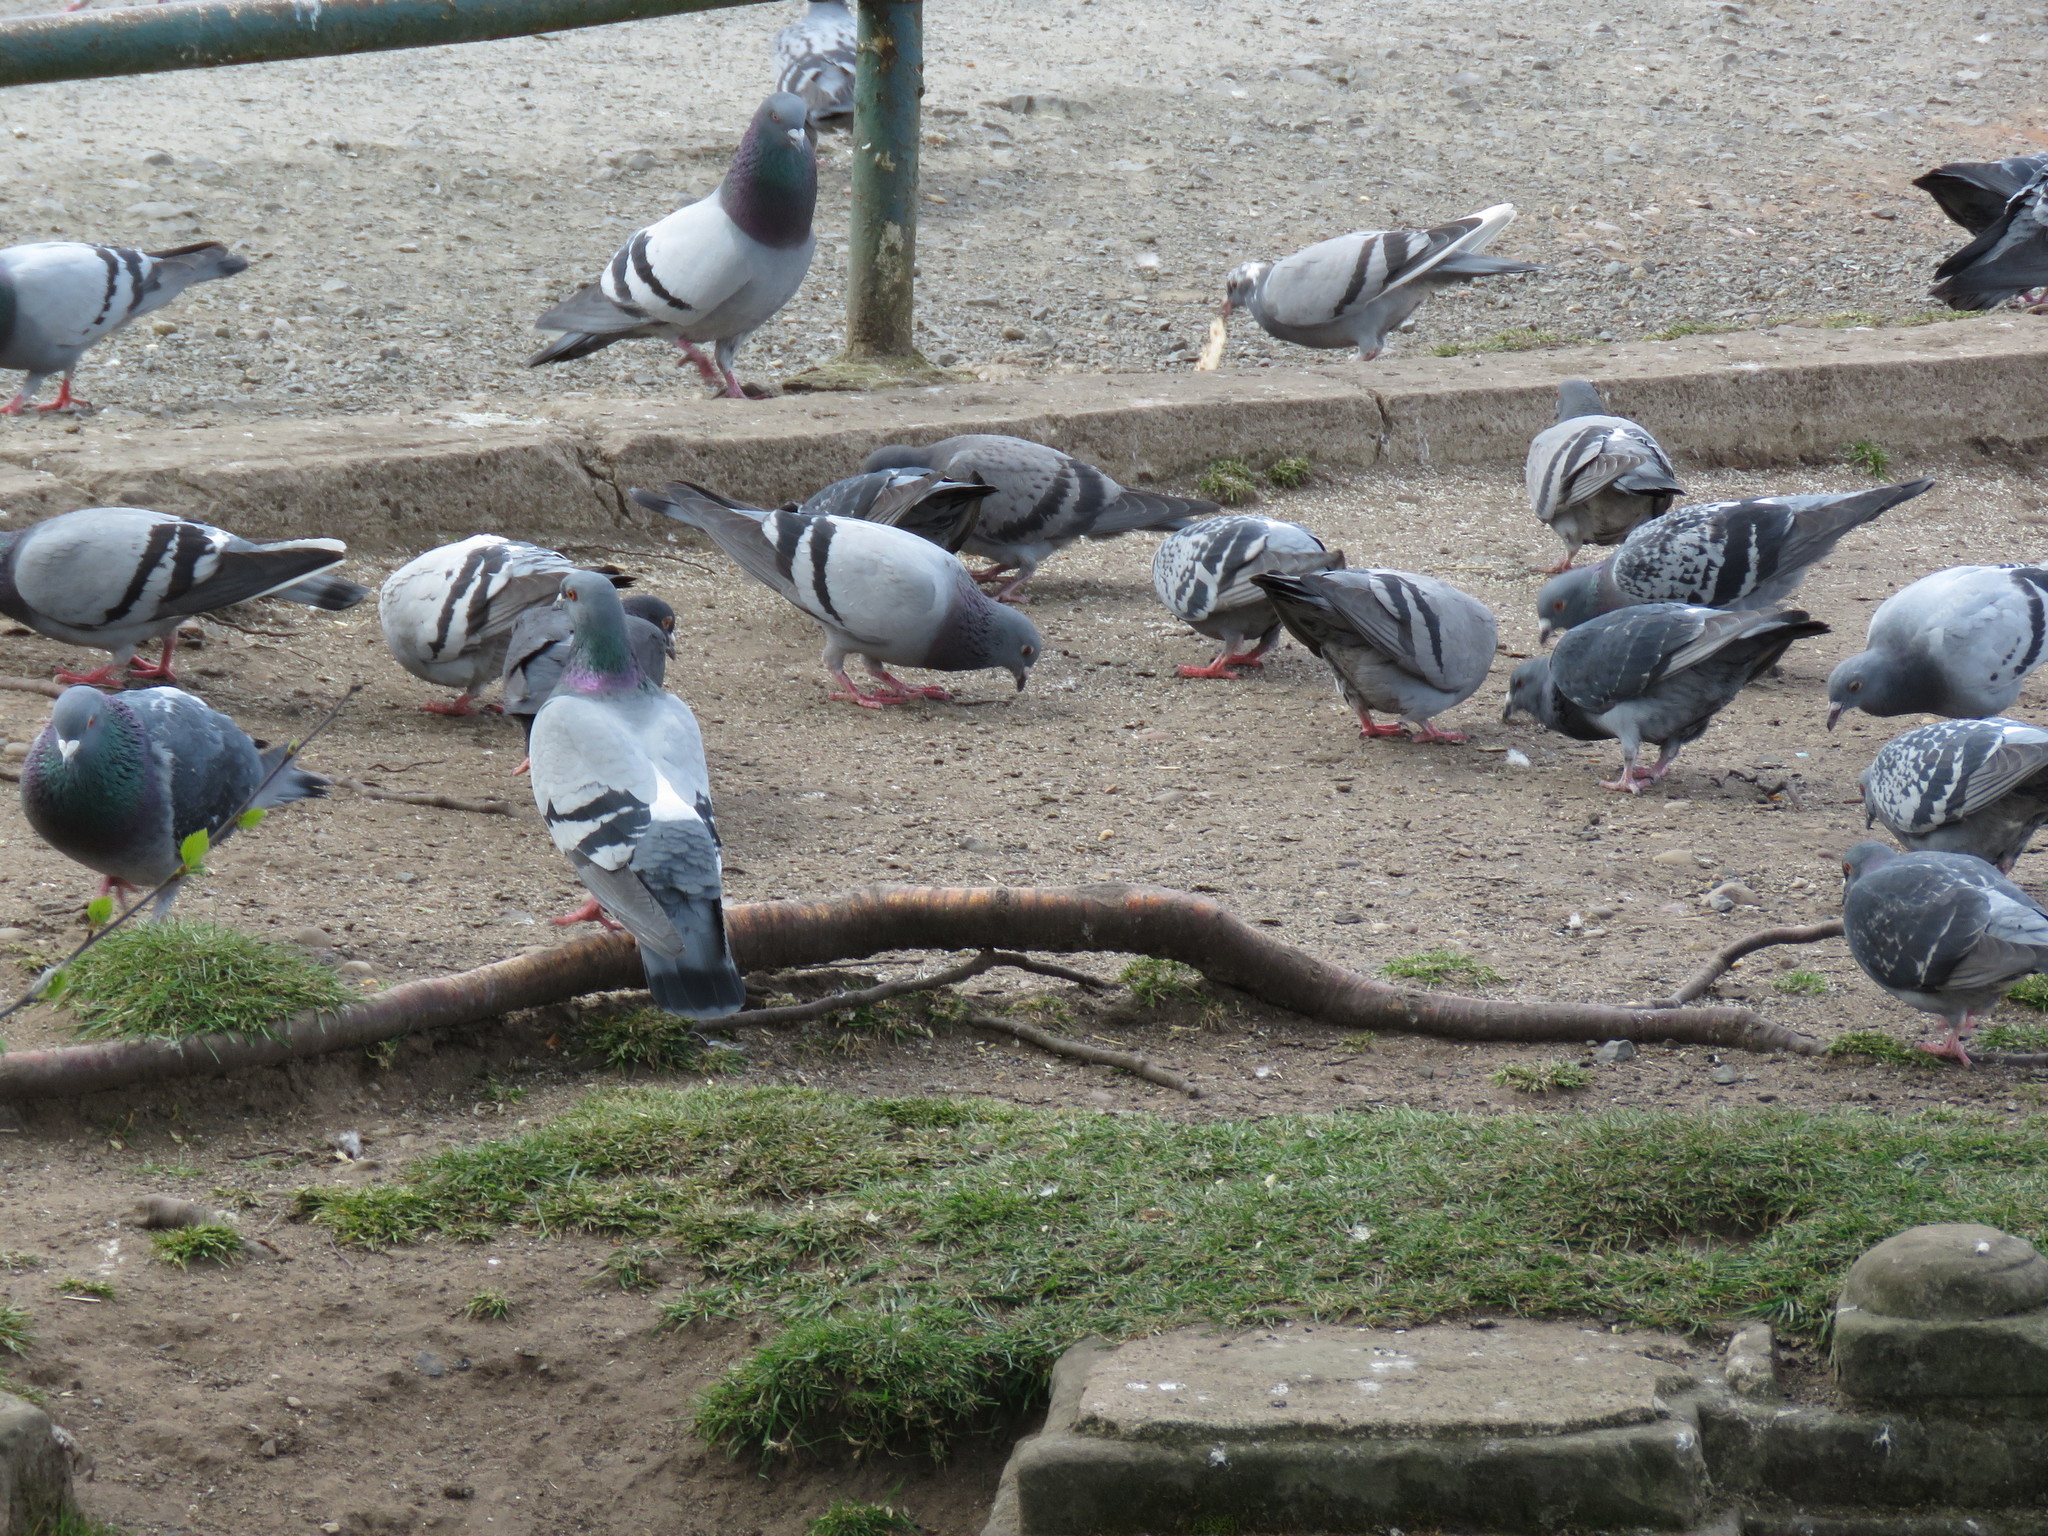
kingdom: Animalia
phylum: Chordata
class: Aves
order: Columbiformes
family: Columbidae
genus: Columba
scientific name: Columba livia
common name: Rock pigeon
